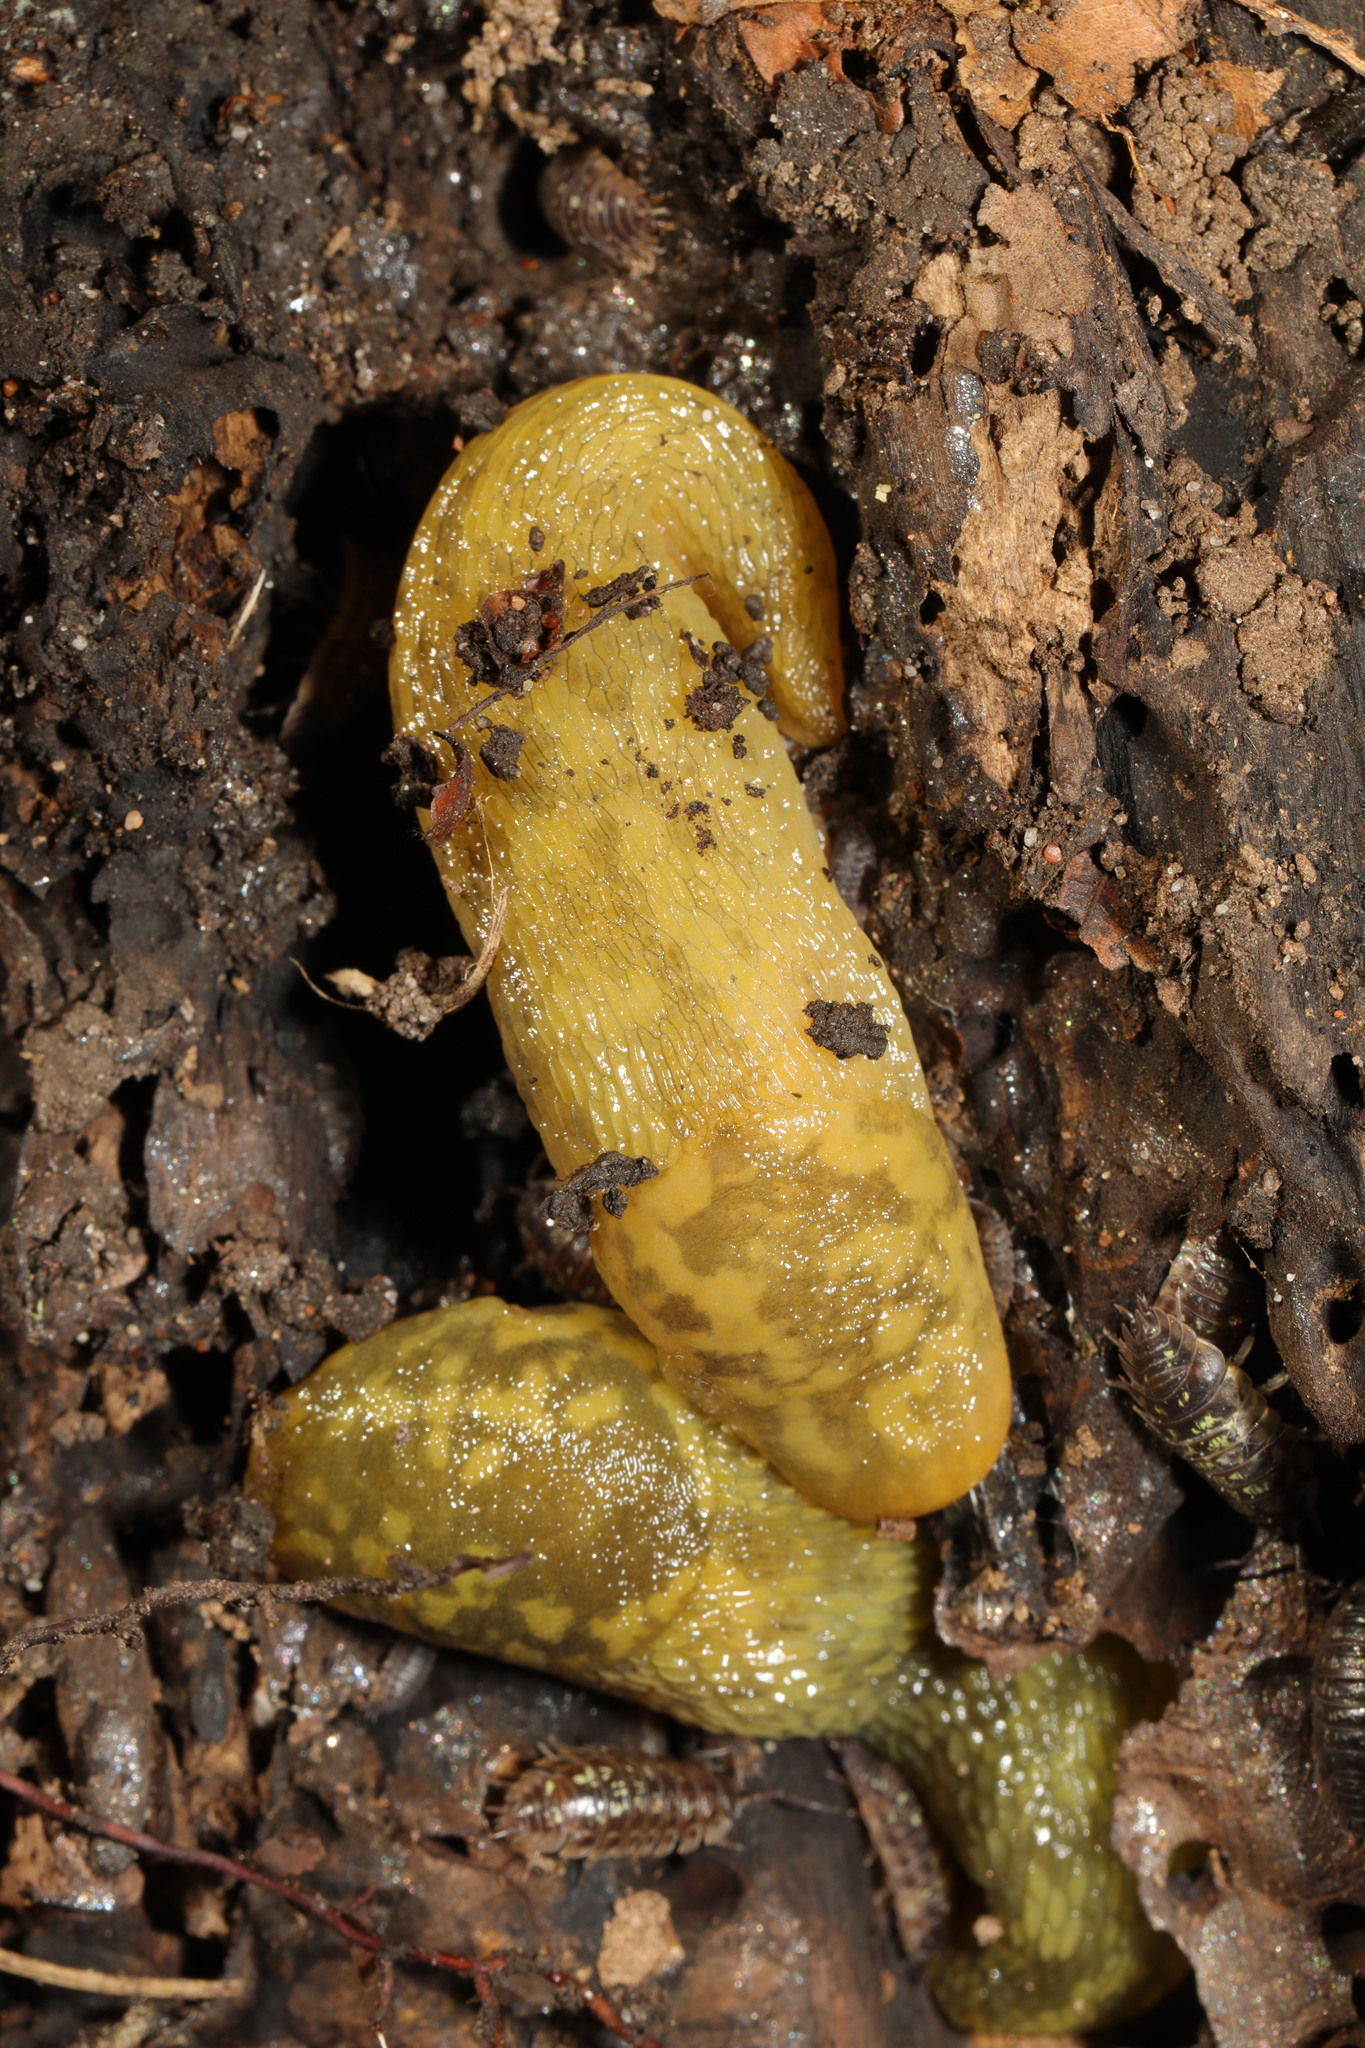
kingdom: Animalia
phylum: Mollusca
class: Gastropoda
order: Stylommatophora
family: Limacidae
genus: Limacus
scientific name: Limacus maculatus
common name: Irish yellow slug
